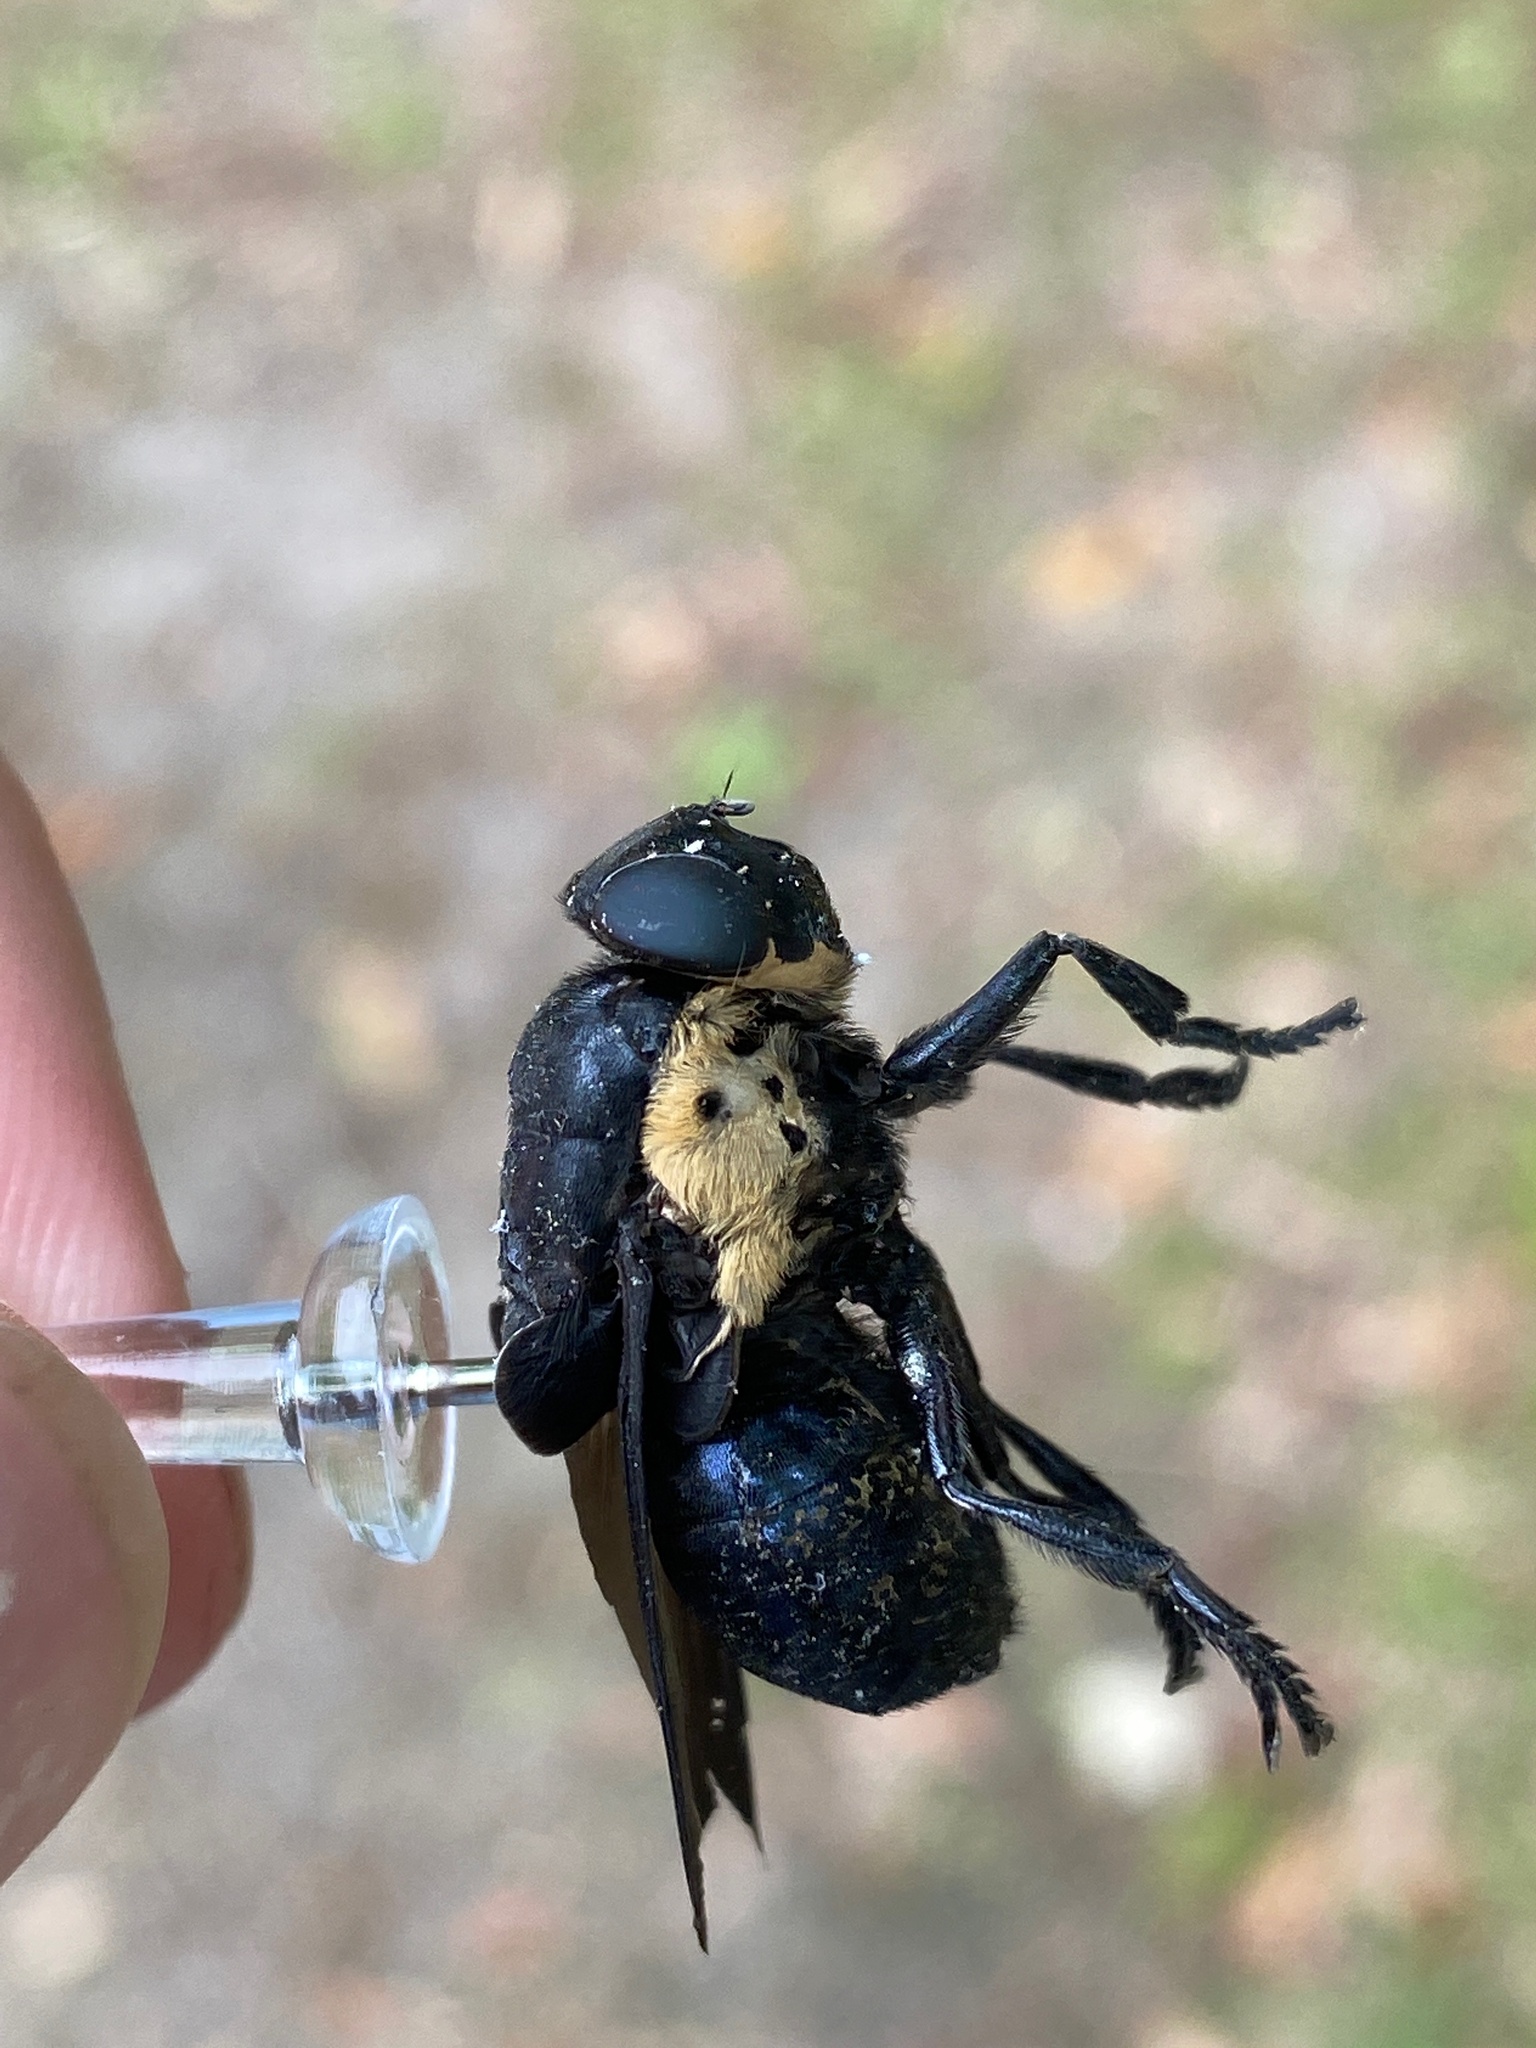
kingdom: Animalia
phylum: Arthropoda
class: Insecta
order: Diptera
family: Oestridae
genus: Cuterebra
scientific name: Cuterebra americana
